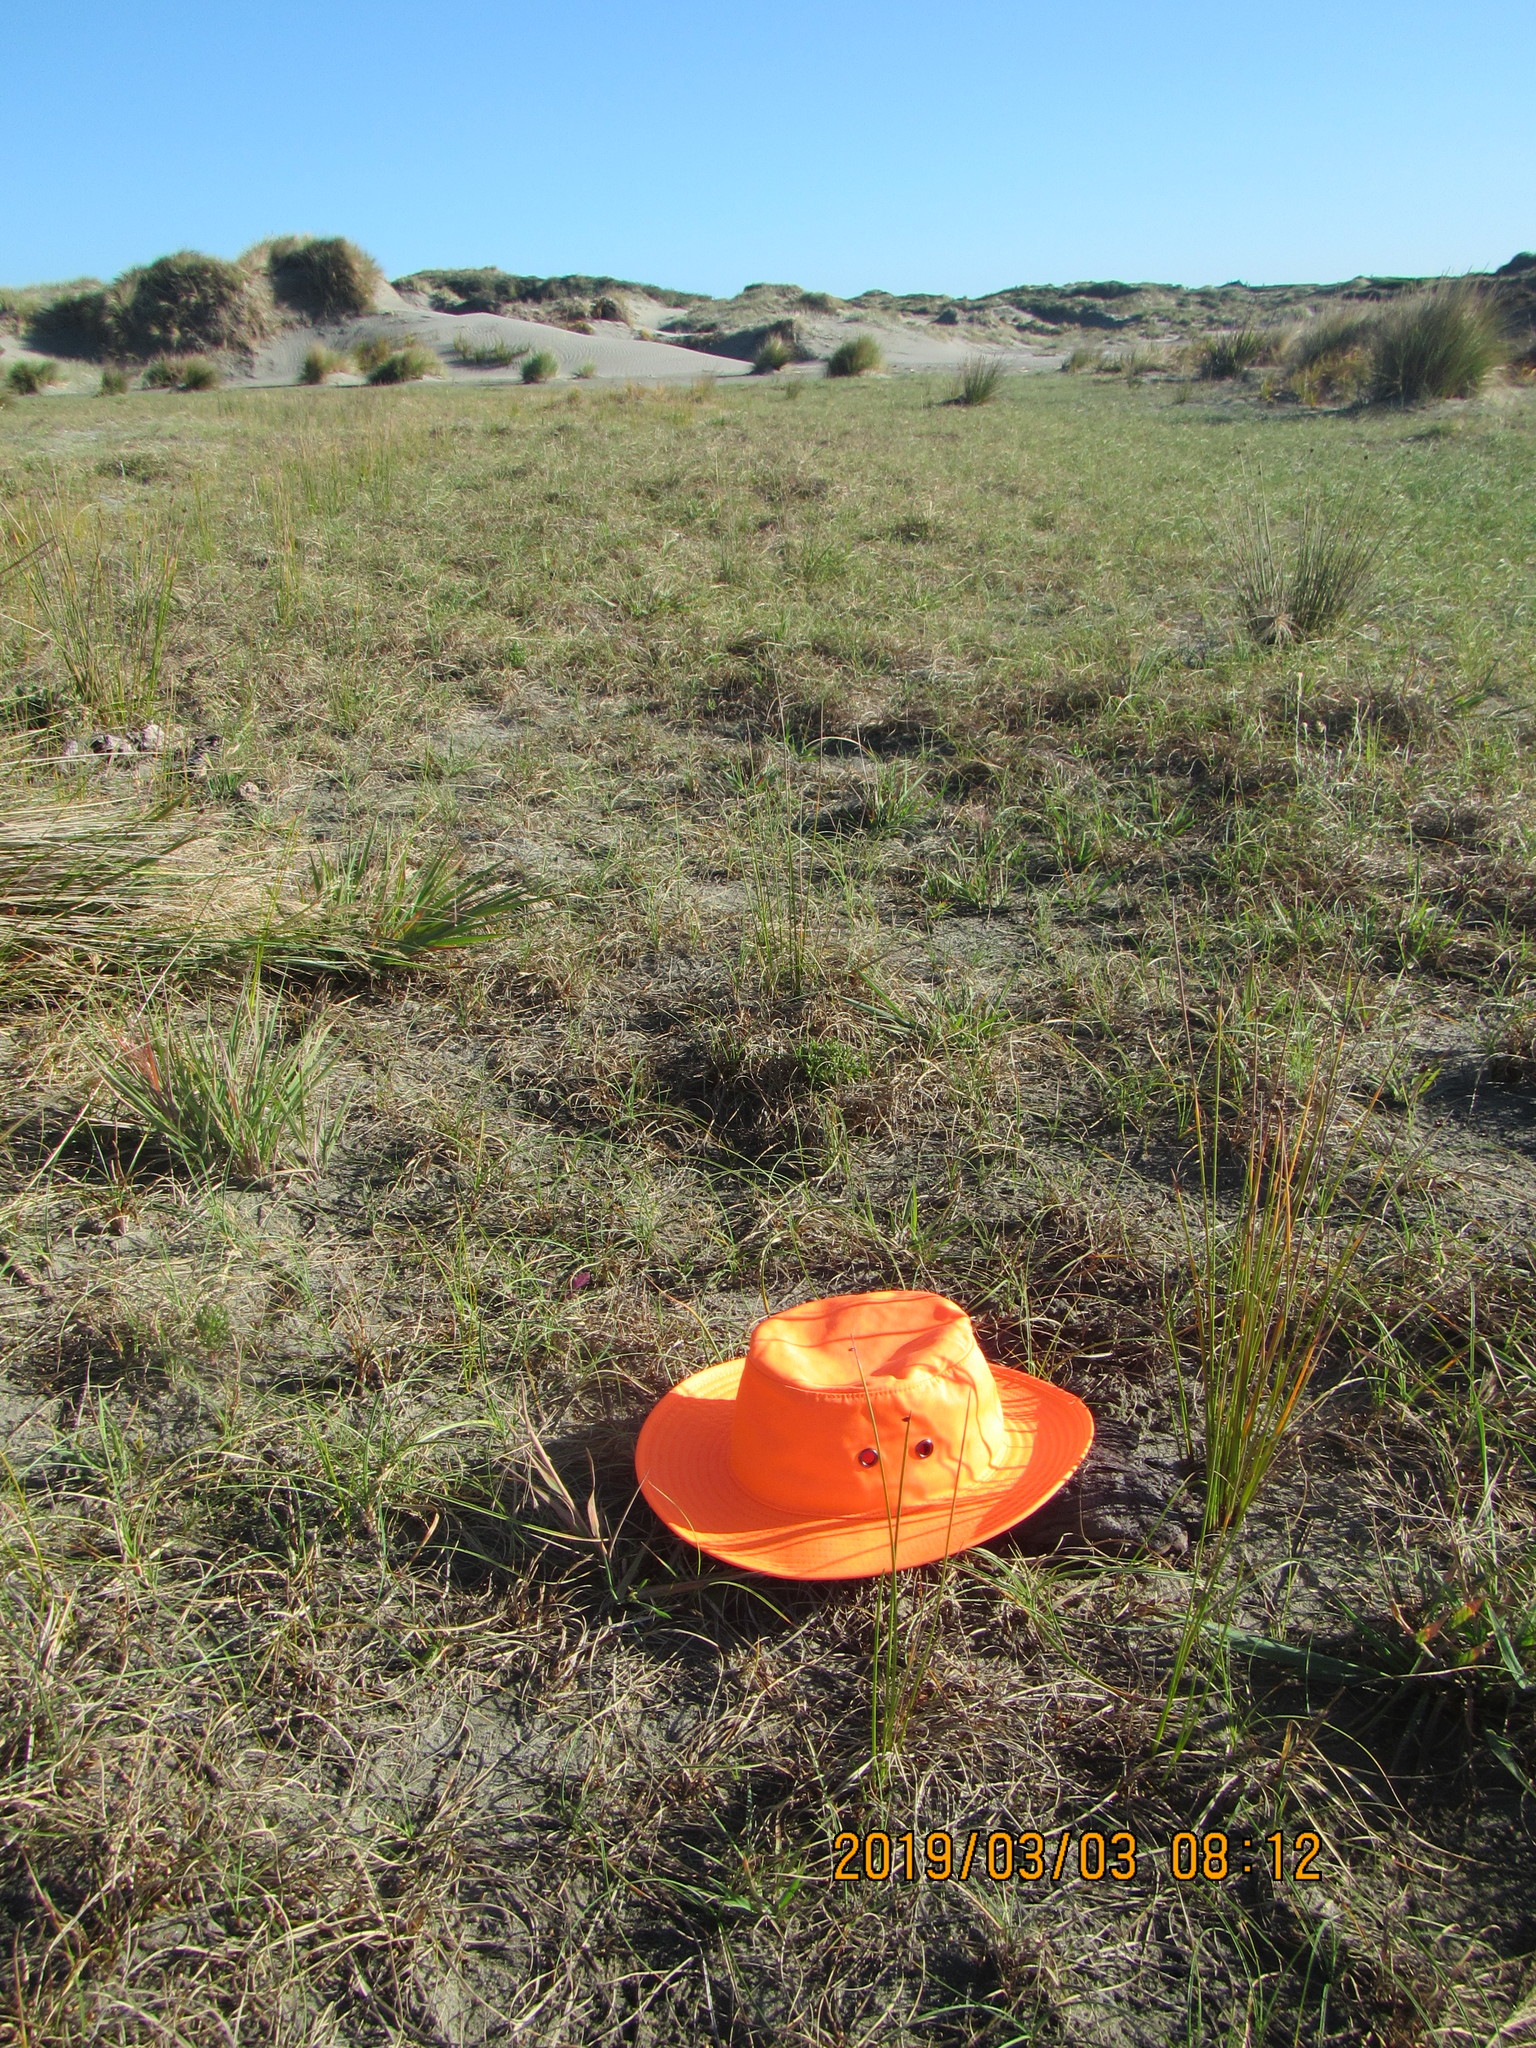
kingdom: Animalia
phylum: Arthropoda
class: Arachnida
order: Araneae
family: Theridiidae
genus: Steatoda
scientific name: Steatoda lepida
